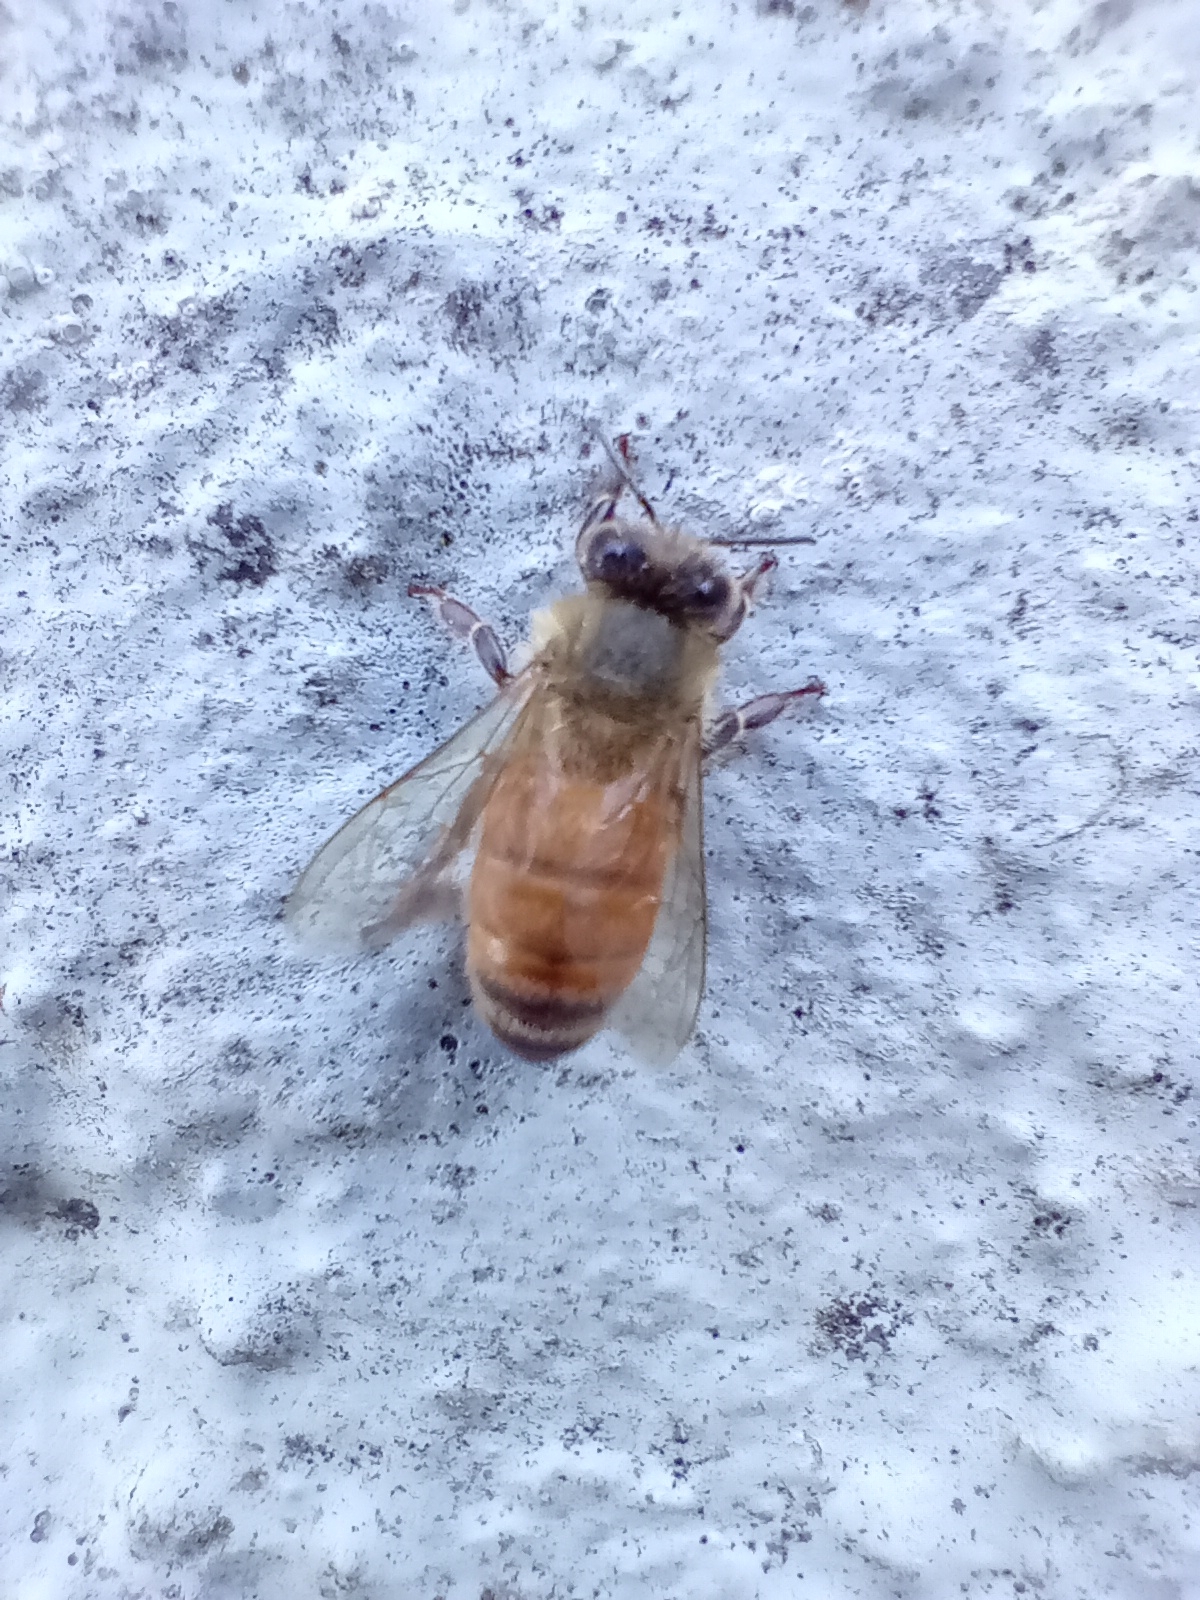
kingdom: Animalia
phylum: Arthropoda
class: Insecta
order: Hymenoptera
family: Apidae
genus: Apis
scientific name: Apis mellifera
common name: Honey bee
